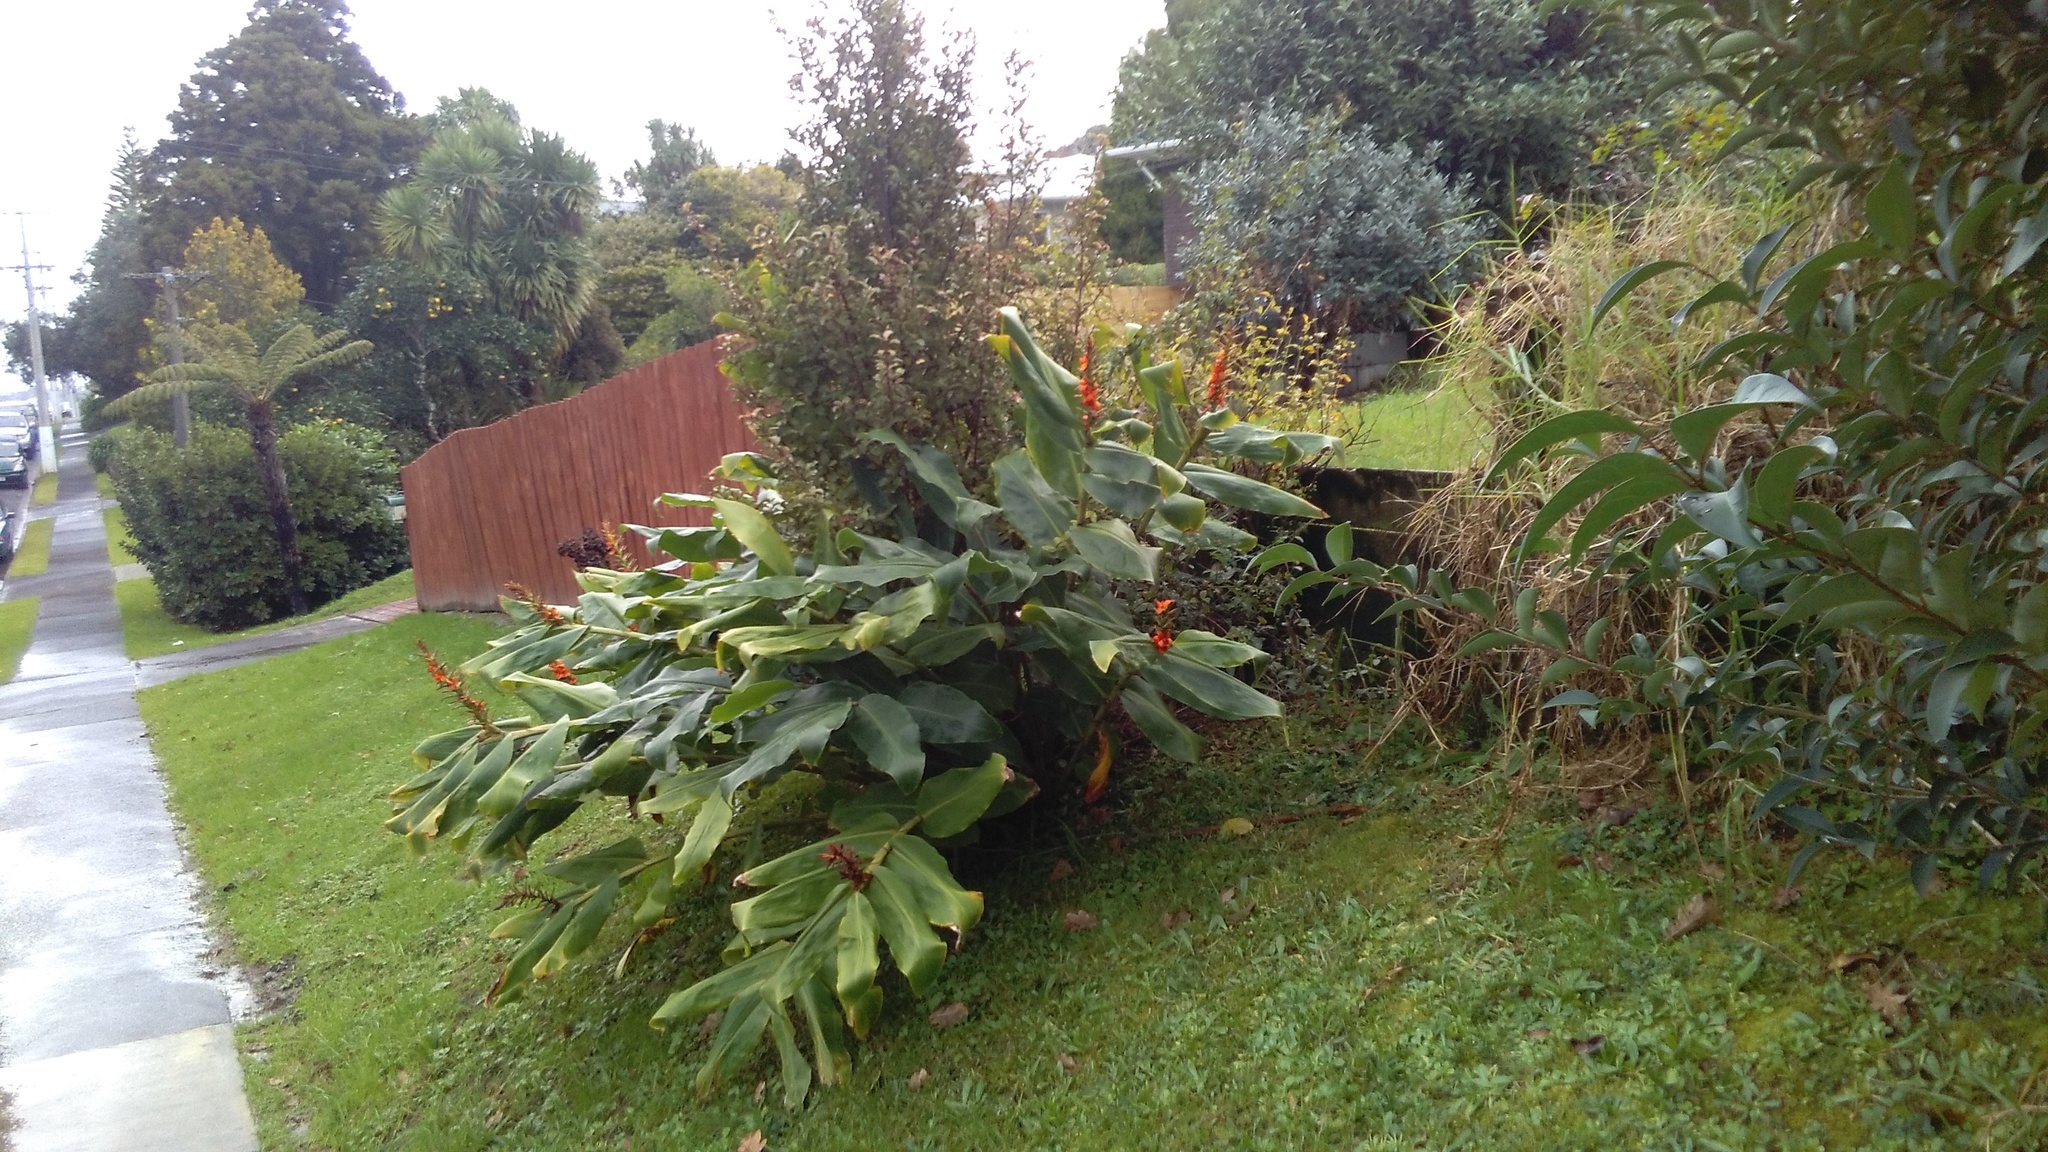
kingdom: Plantae
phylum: Tracheophyta
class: Liliopsida
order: Zingiberales
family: Zingiberaceae
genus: Hedychium
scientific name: Hedychium gardnerianum
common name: Himalayan ginger
